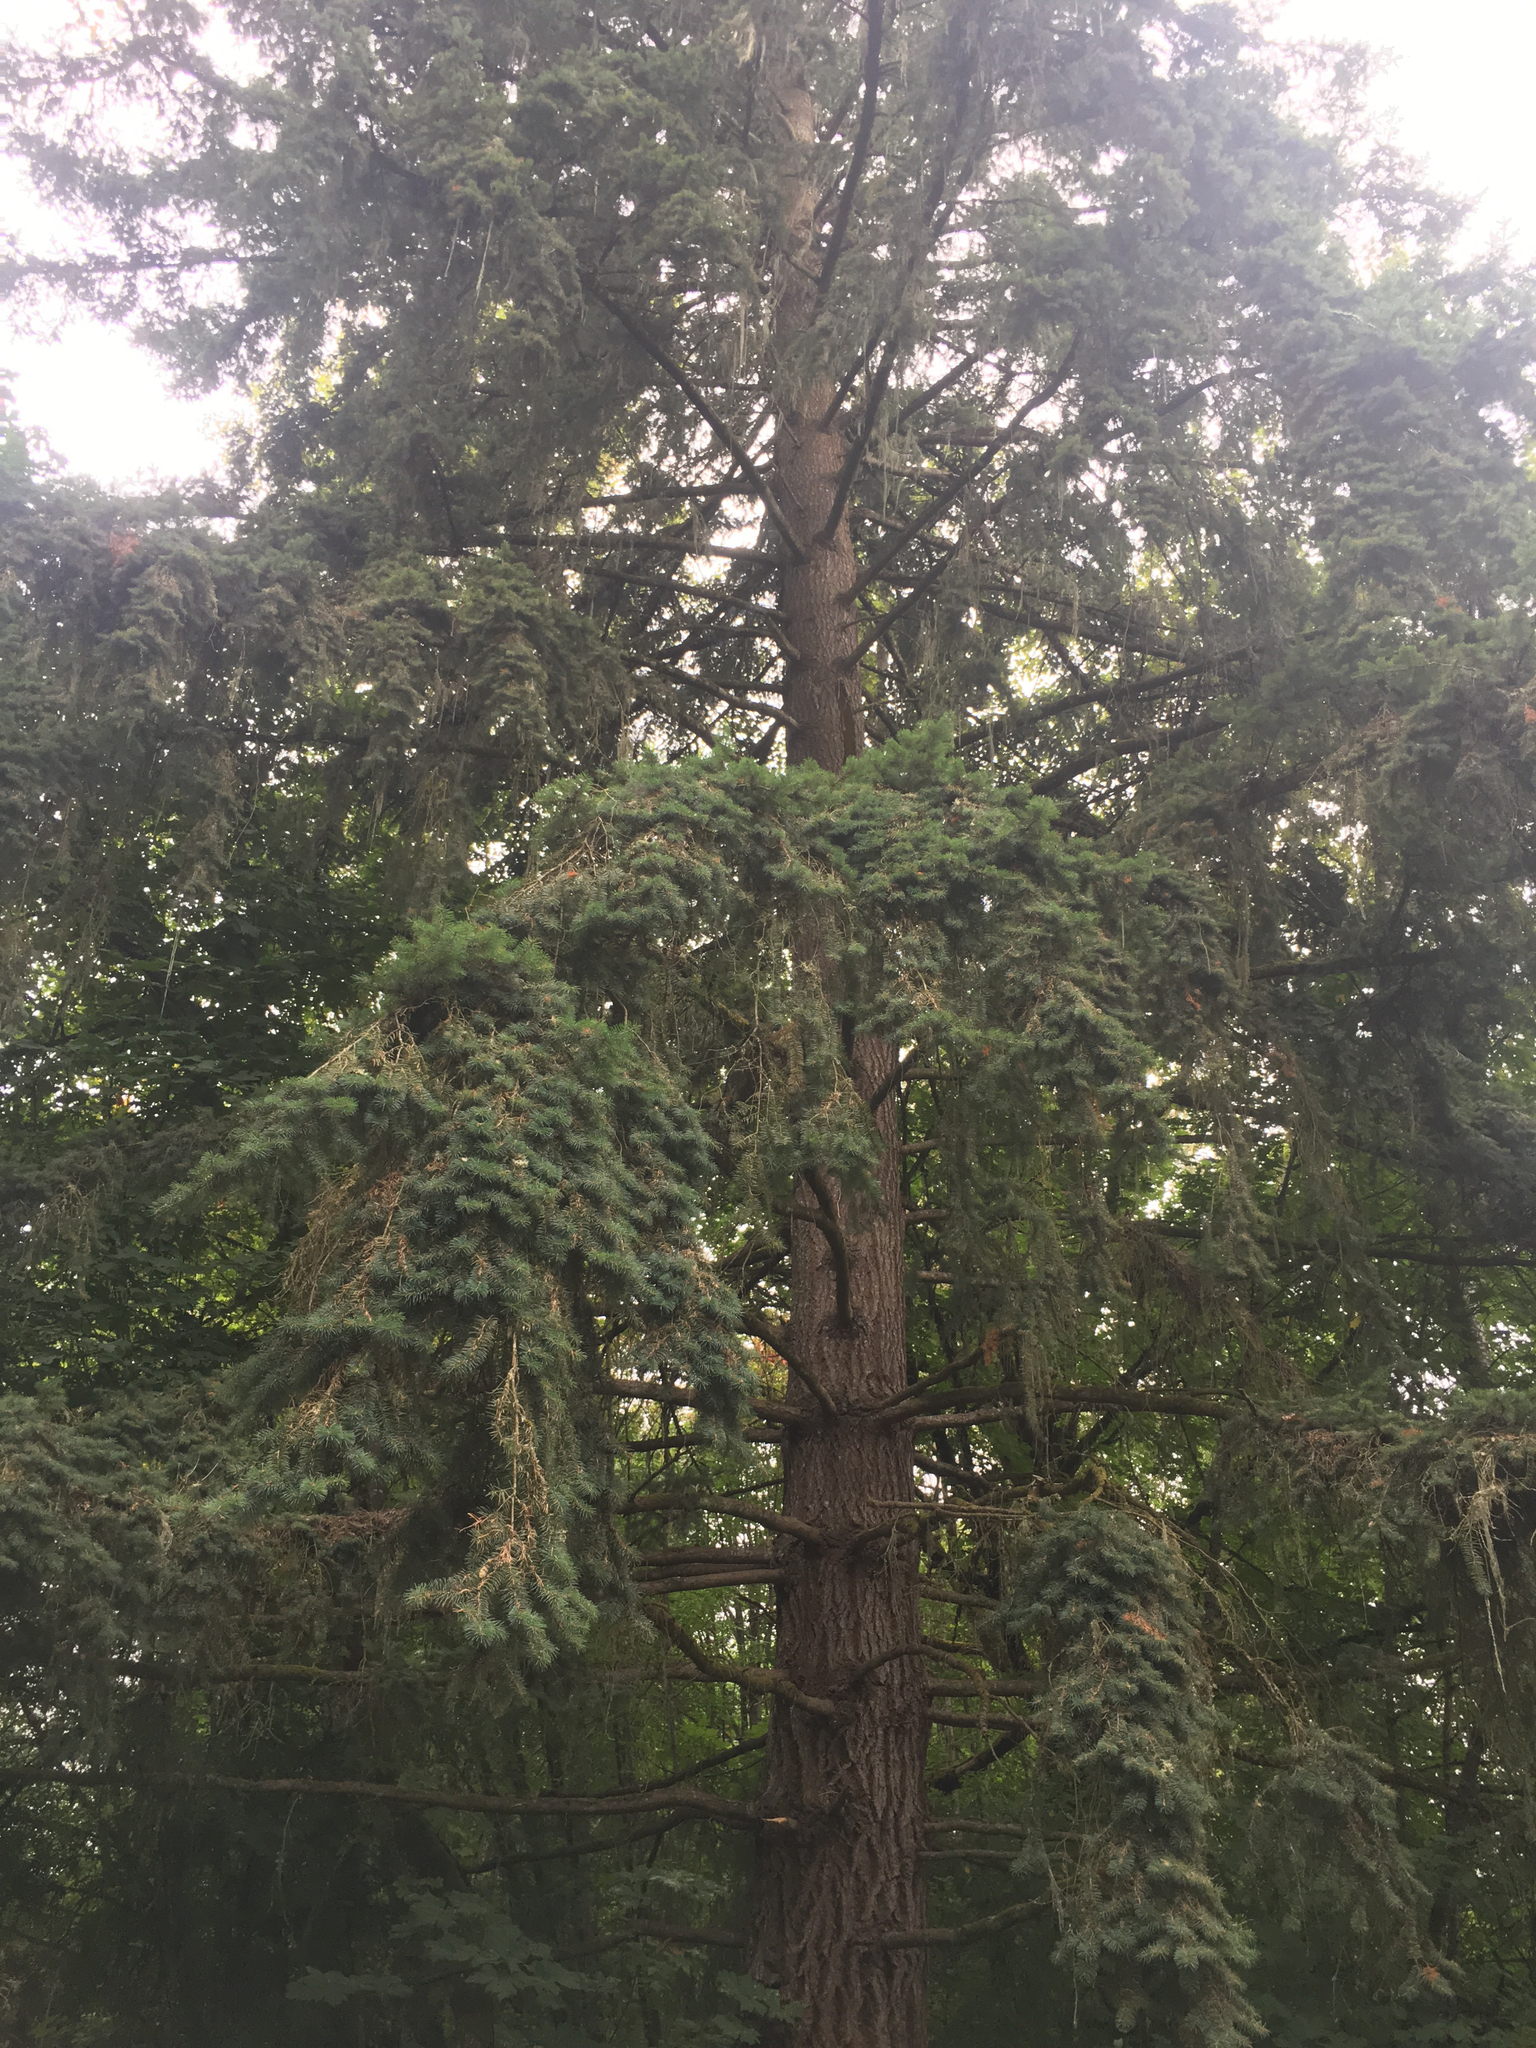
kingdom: Plantae
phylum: Tracheophyta
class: Pinopsida
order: Pinales
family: Pinaceae
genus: Pseudotsuga
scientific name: Pseudotsuga menziesii
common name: Douglas fir
